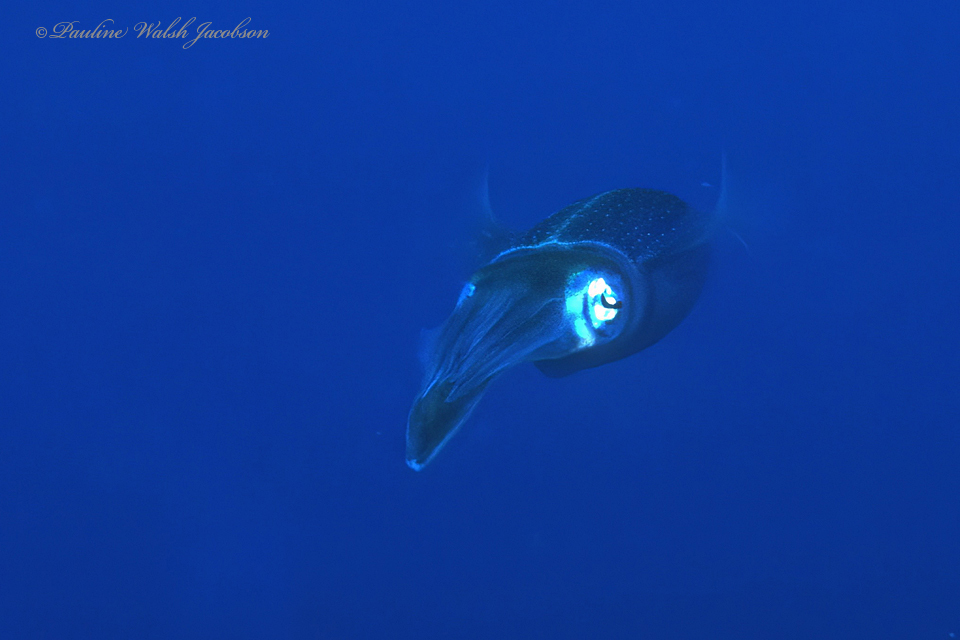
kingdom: Animalia
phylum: Mollusca
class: Cephalopoda
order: Myopsida
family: Loliginidae
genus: Sepioteuthis
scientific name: Sepioteuthis sepioidea
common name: Caribbean reef squid
